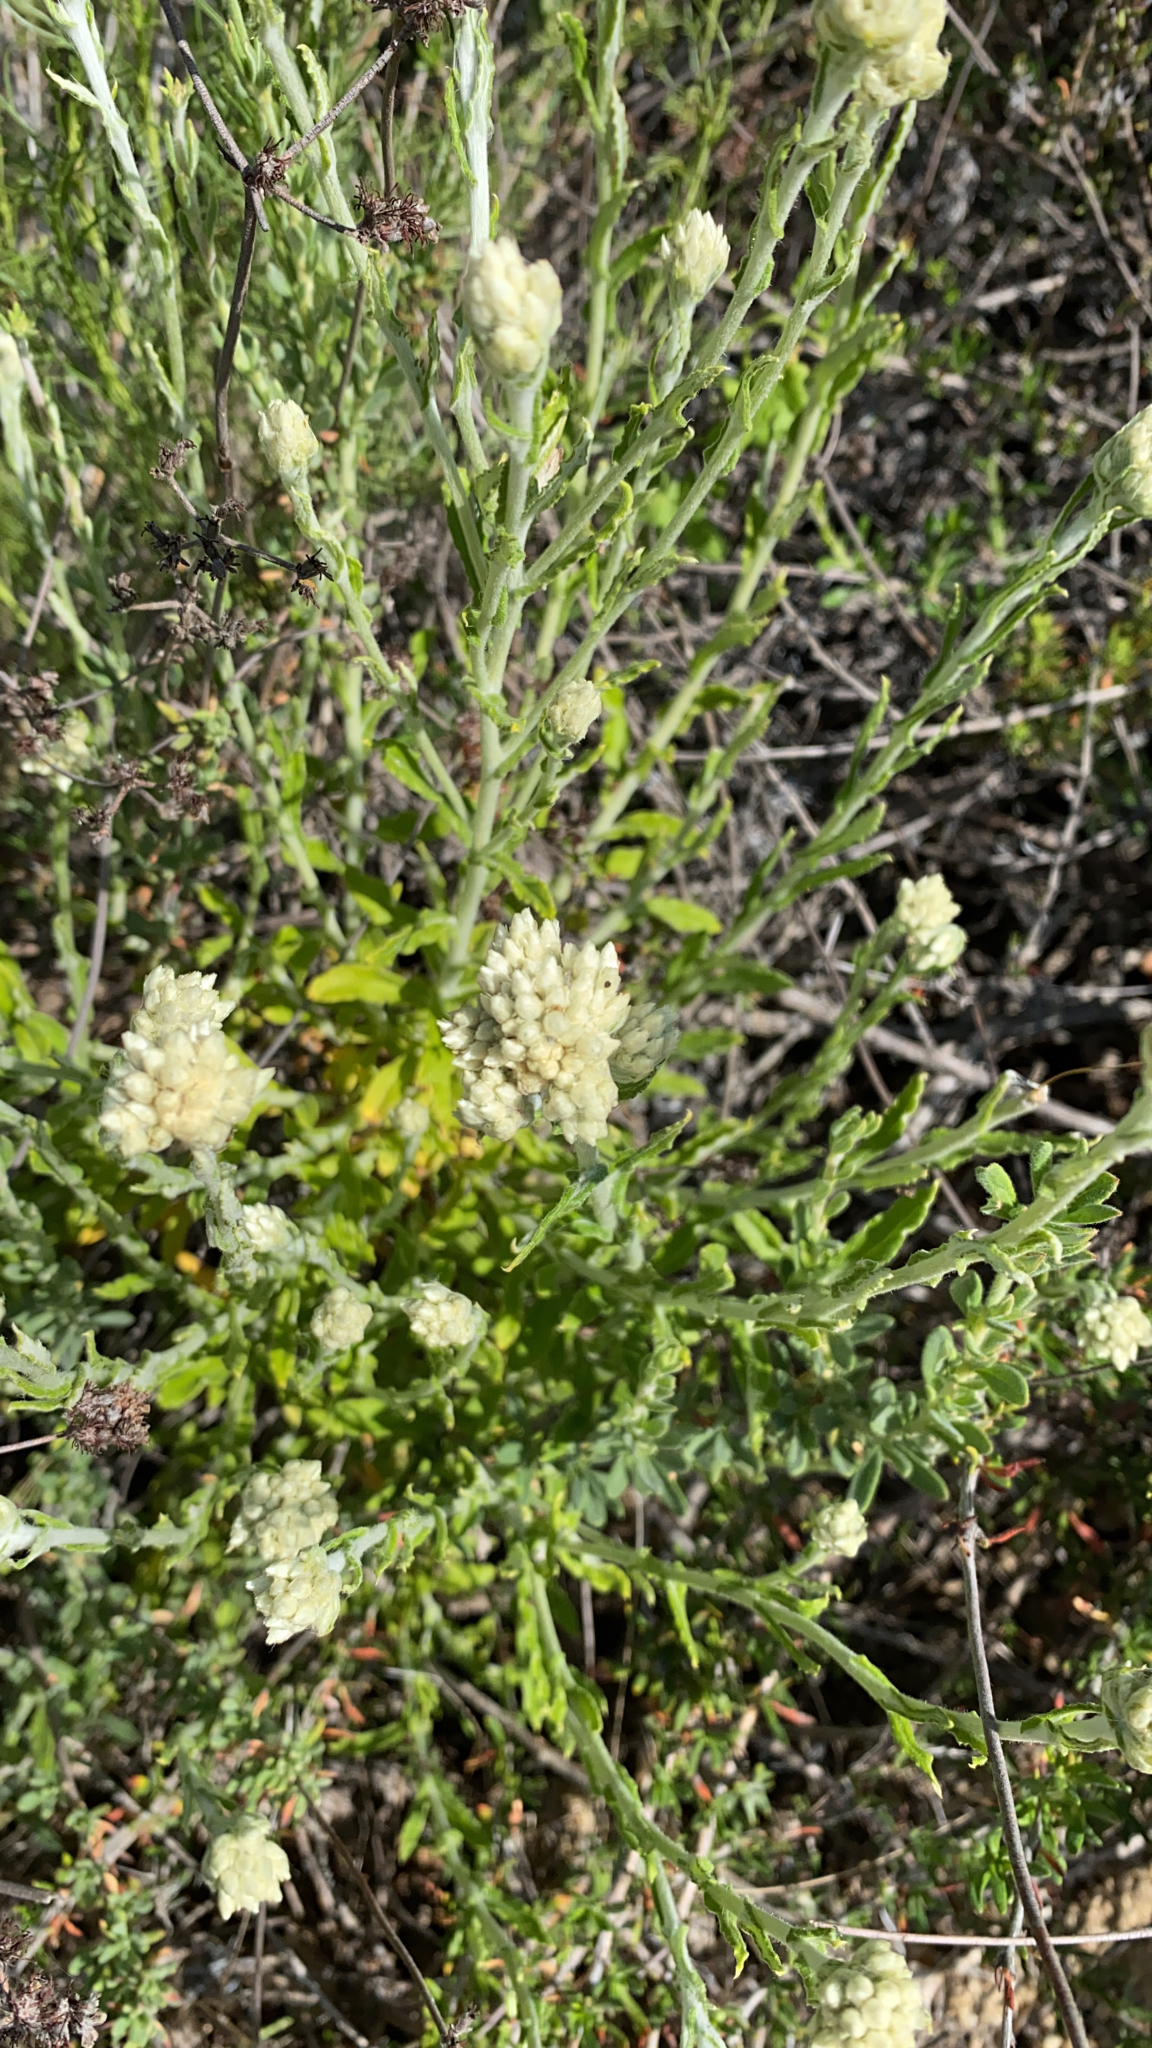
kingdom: Plantae
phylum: Tracheophyta
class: Magnoliopsida
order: Asterales
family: Asteraceae
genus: Pseudognaphalium
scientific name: Pseudognaphalium biolettii
